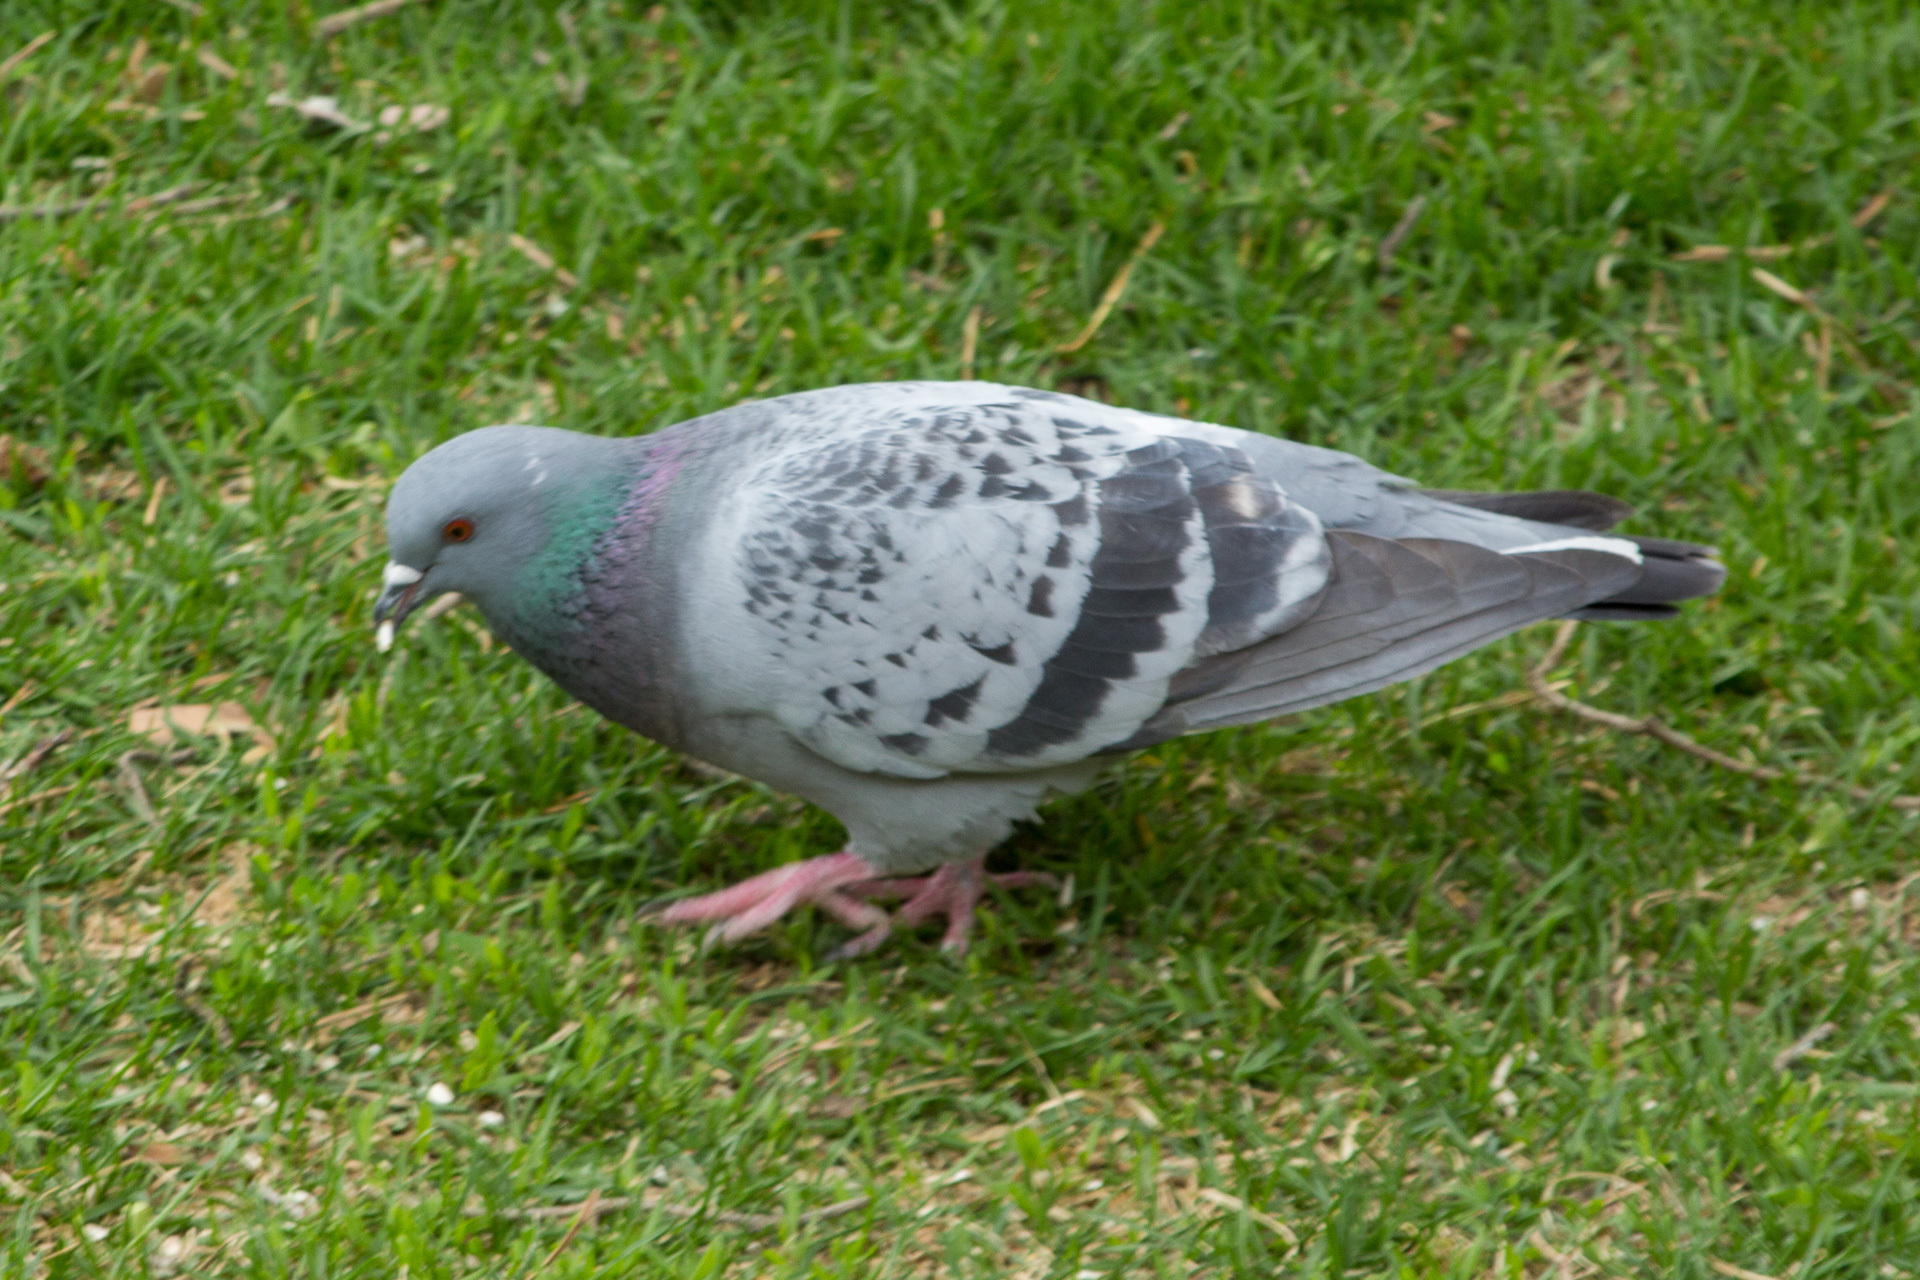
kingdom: Animalia
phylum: Chordata
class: Aves
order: Columbiformes
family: Columbidae
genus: Columba
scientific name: Columba livia
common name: Rock pigeon
